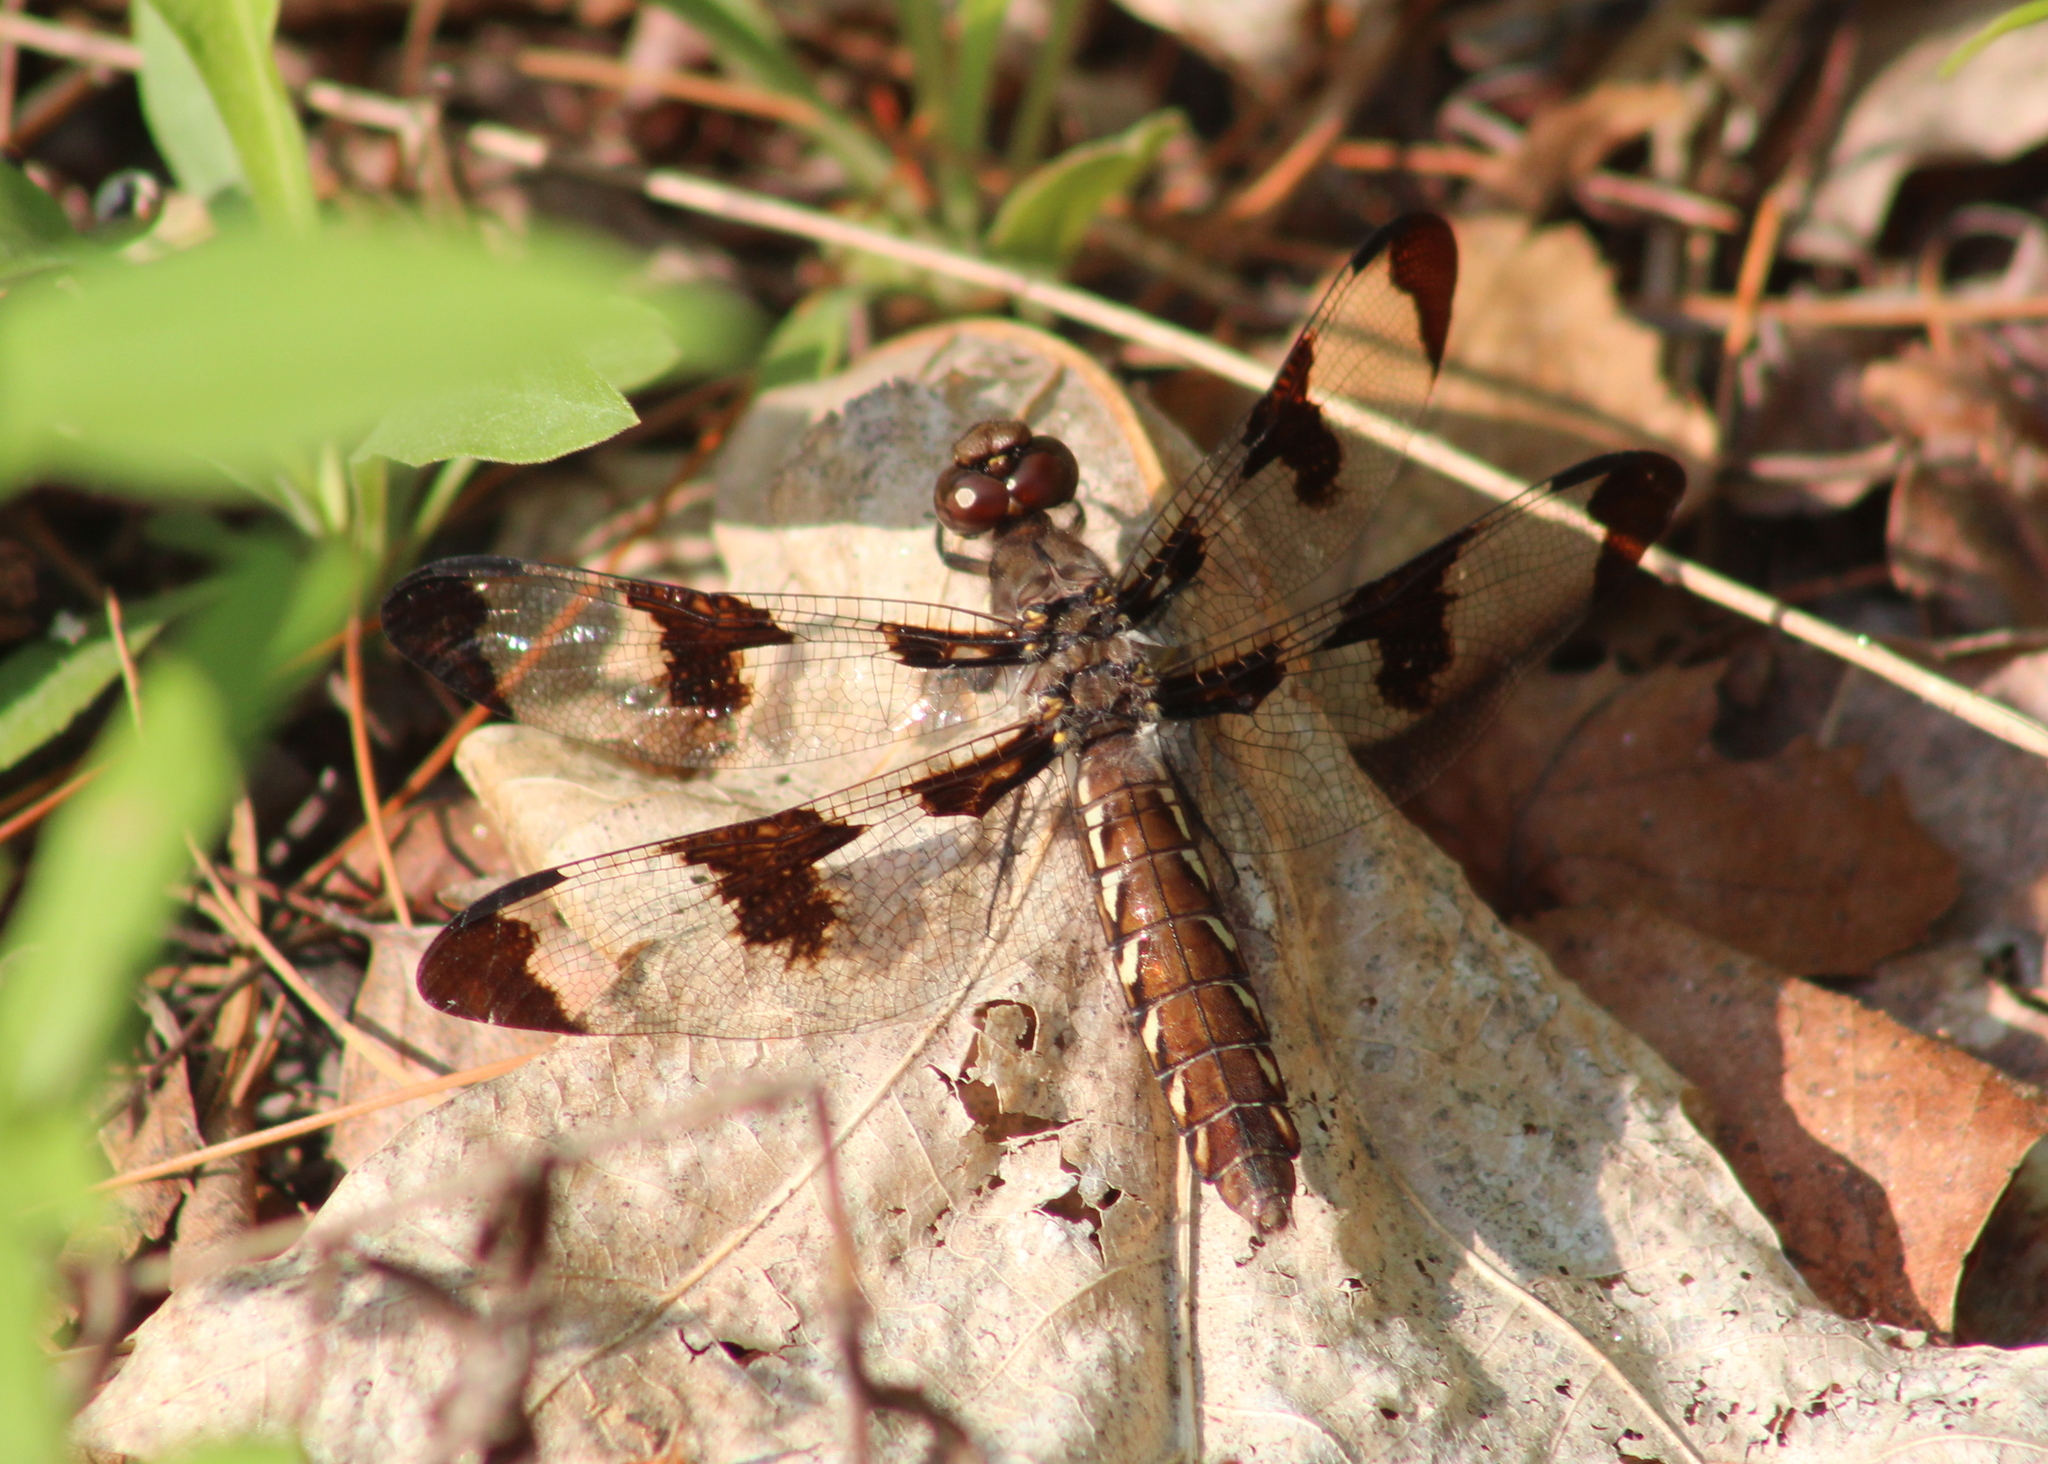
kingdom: Animalia
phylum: Arthropoda
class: Insecta
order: Odonata
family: Libellulidae
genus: Plathemis
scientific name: Plathemis lydia
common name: Common whitetail
